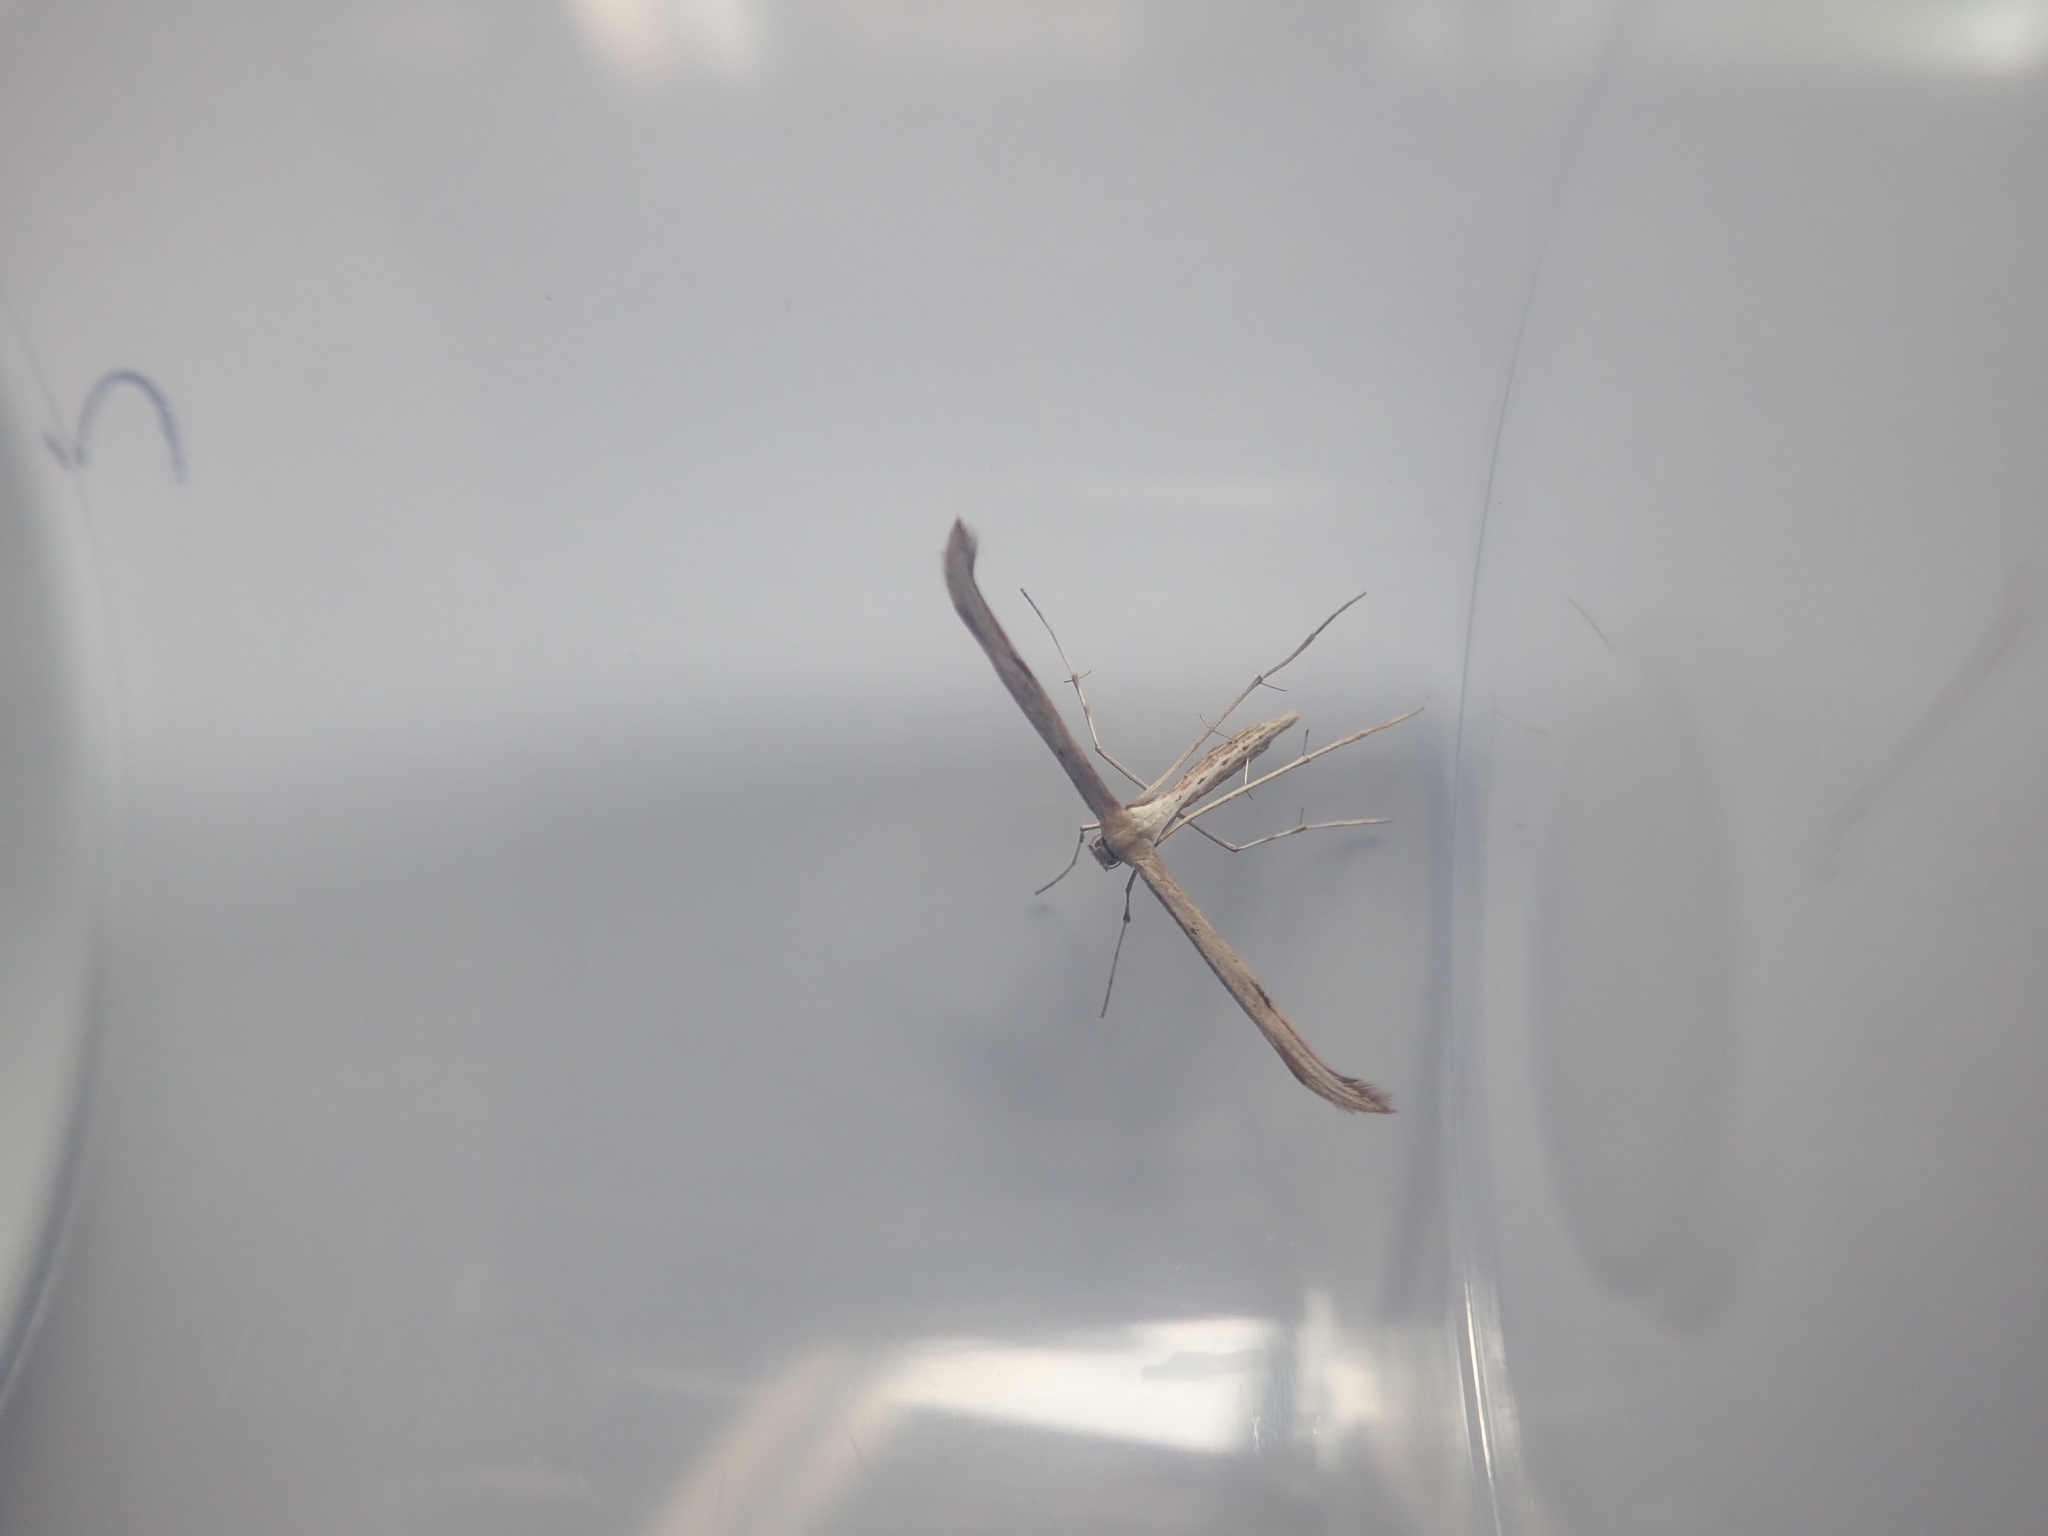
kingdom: Animalia
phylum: Arthropoda
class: Insecta
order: Lepidoptera
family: Pterophoridae
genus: Emmelina
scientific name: Emmelina monodactyla
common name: Common plume
